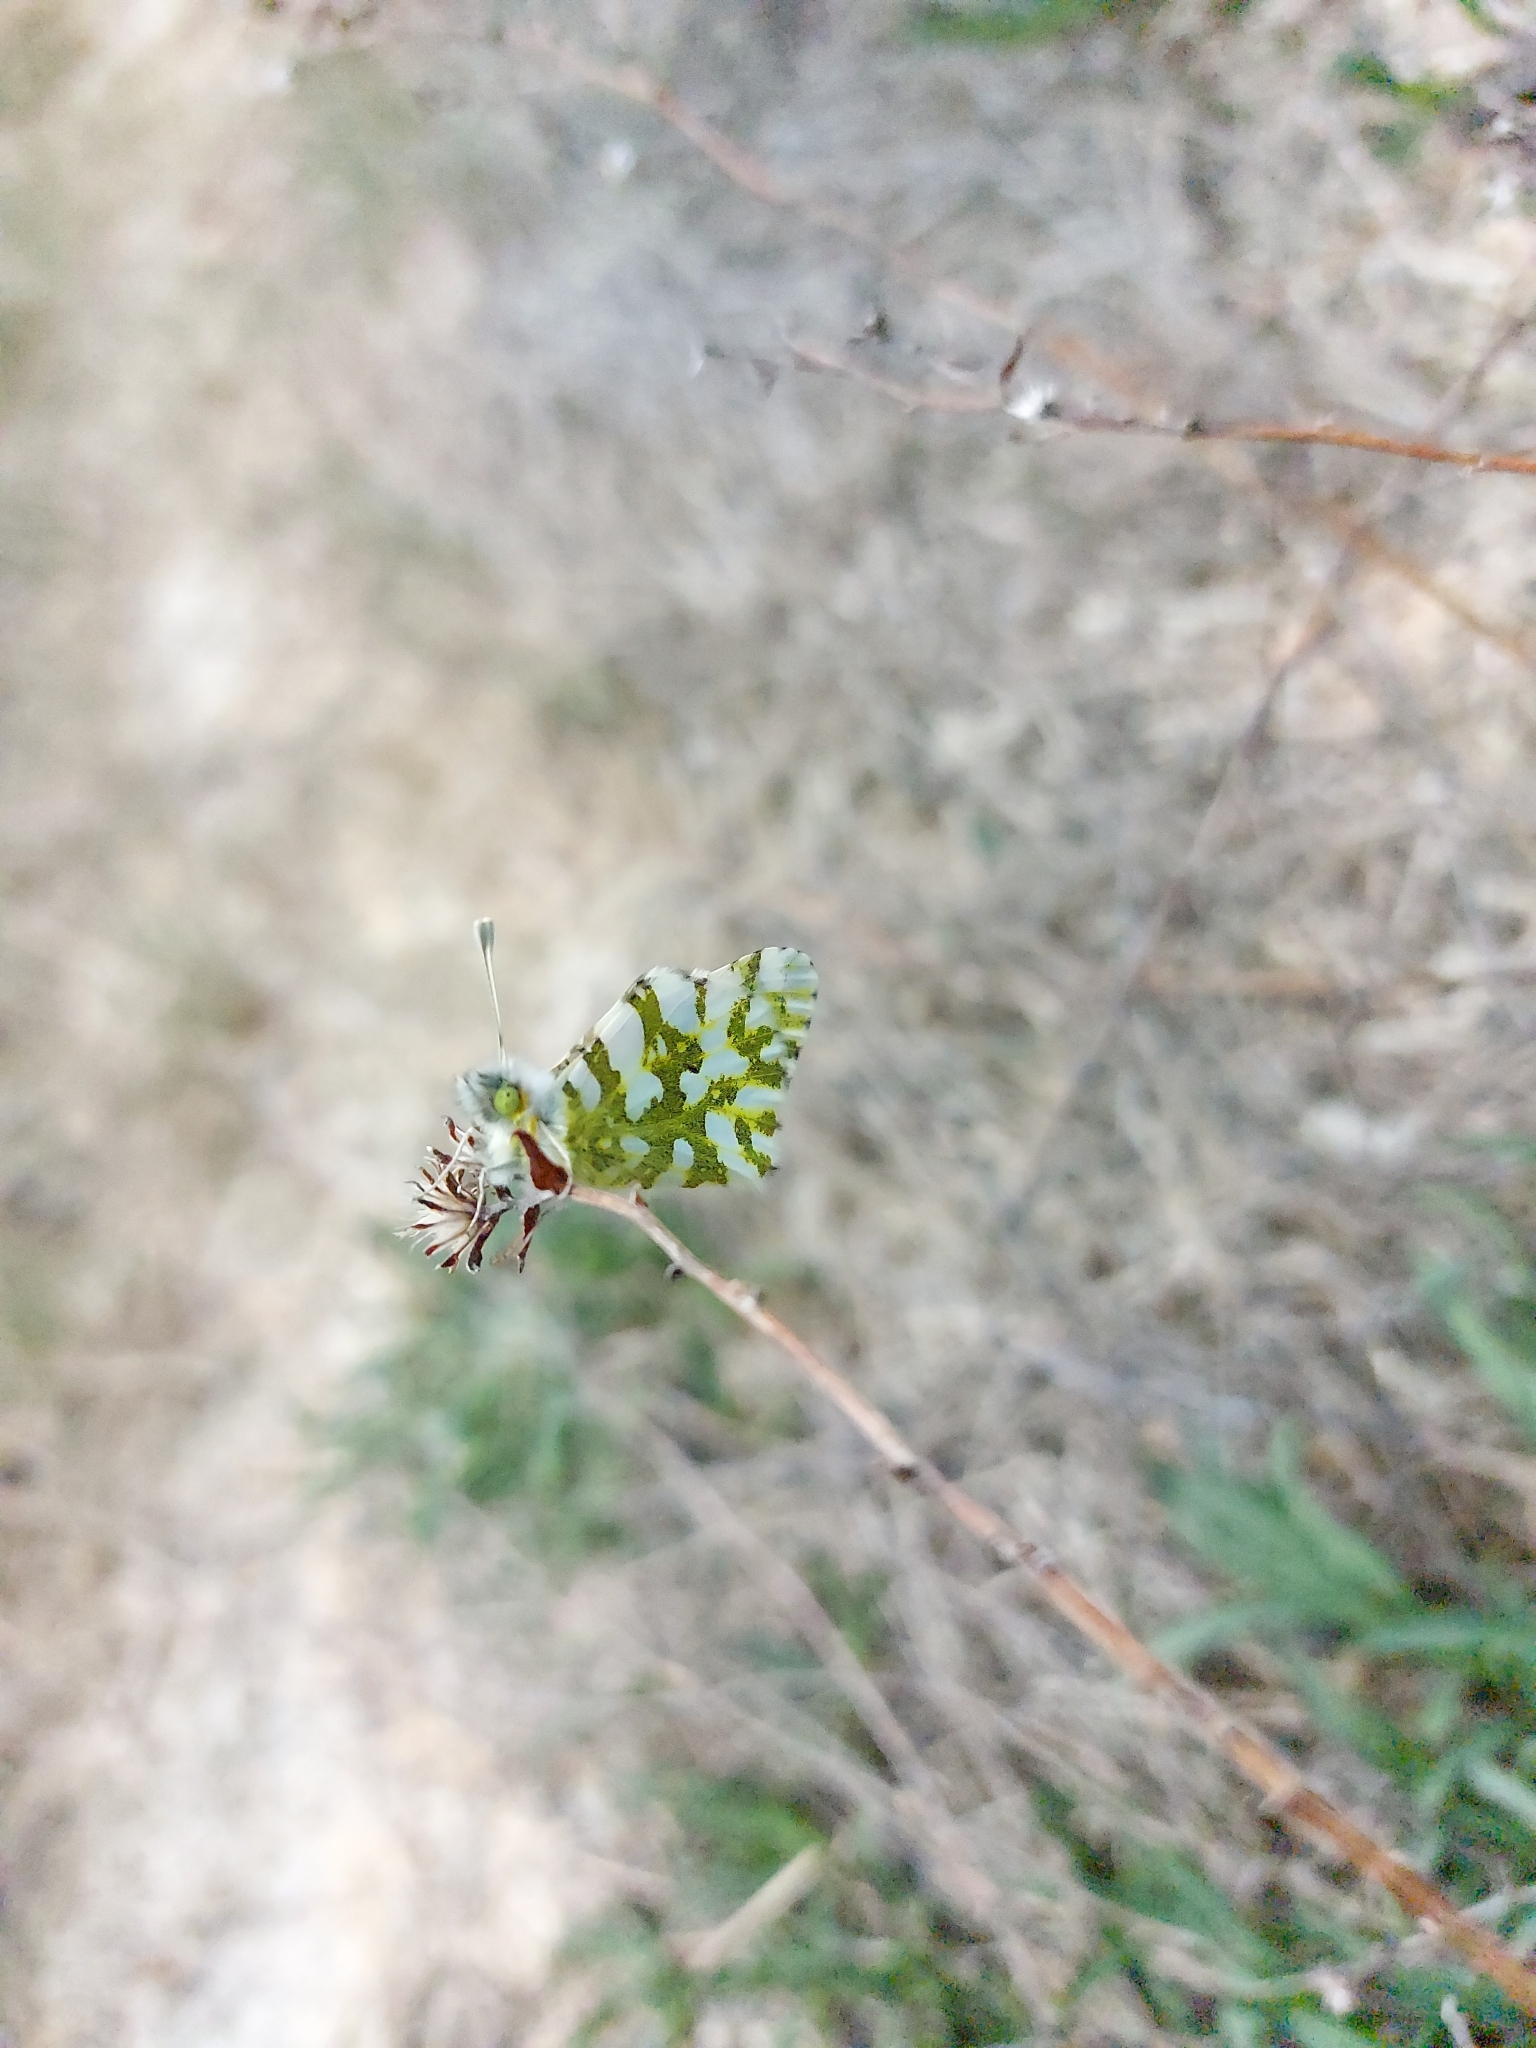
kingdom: Animalia
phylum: Arthropoda
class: Insecta
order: Lepidoptera
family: Pieridae
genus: Euchloe
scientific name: Euchloe ausonides
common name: Creamy marblewing
